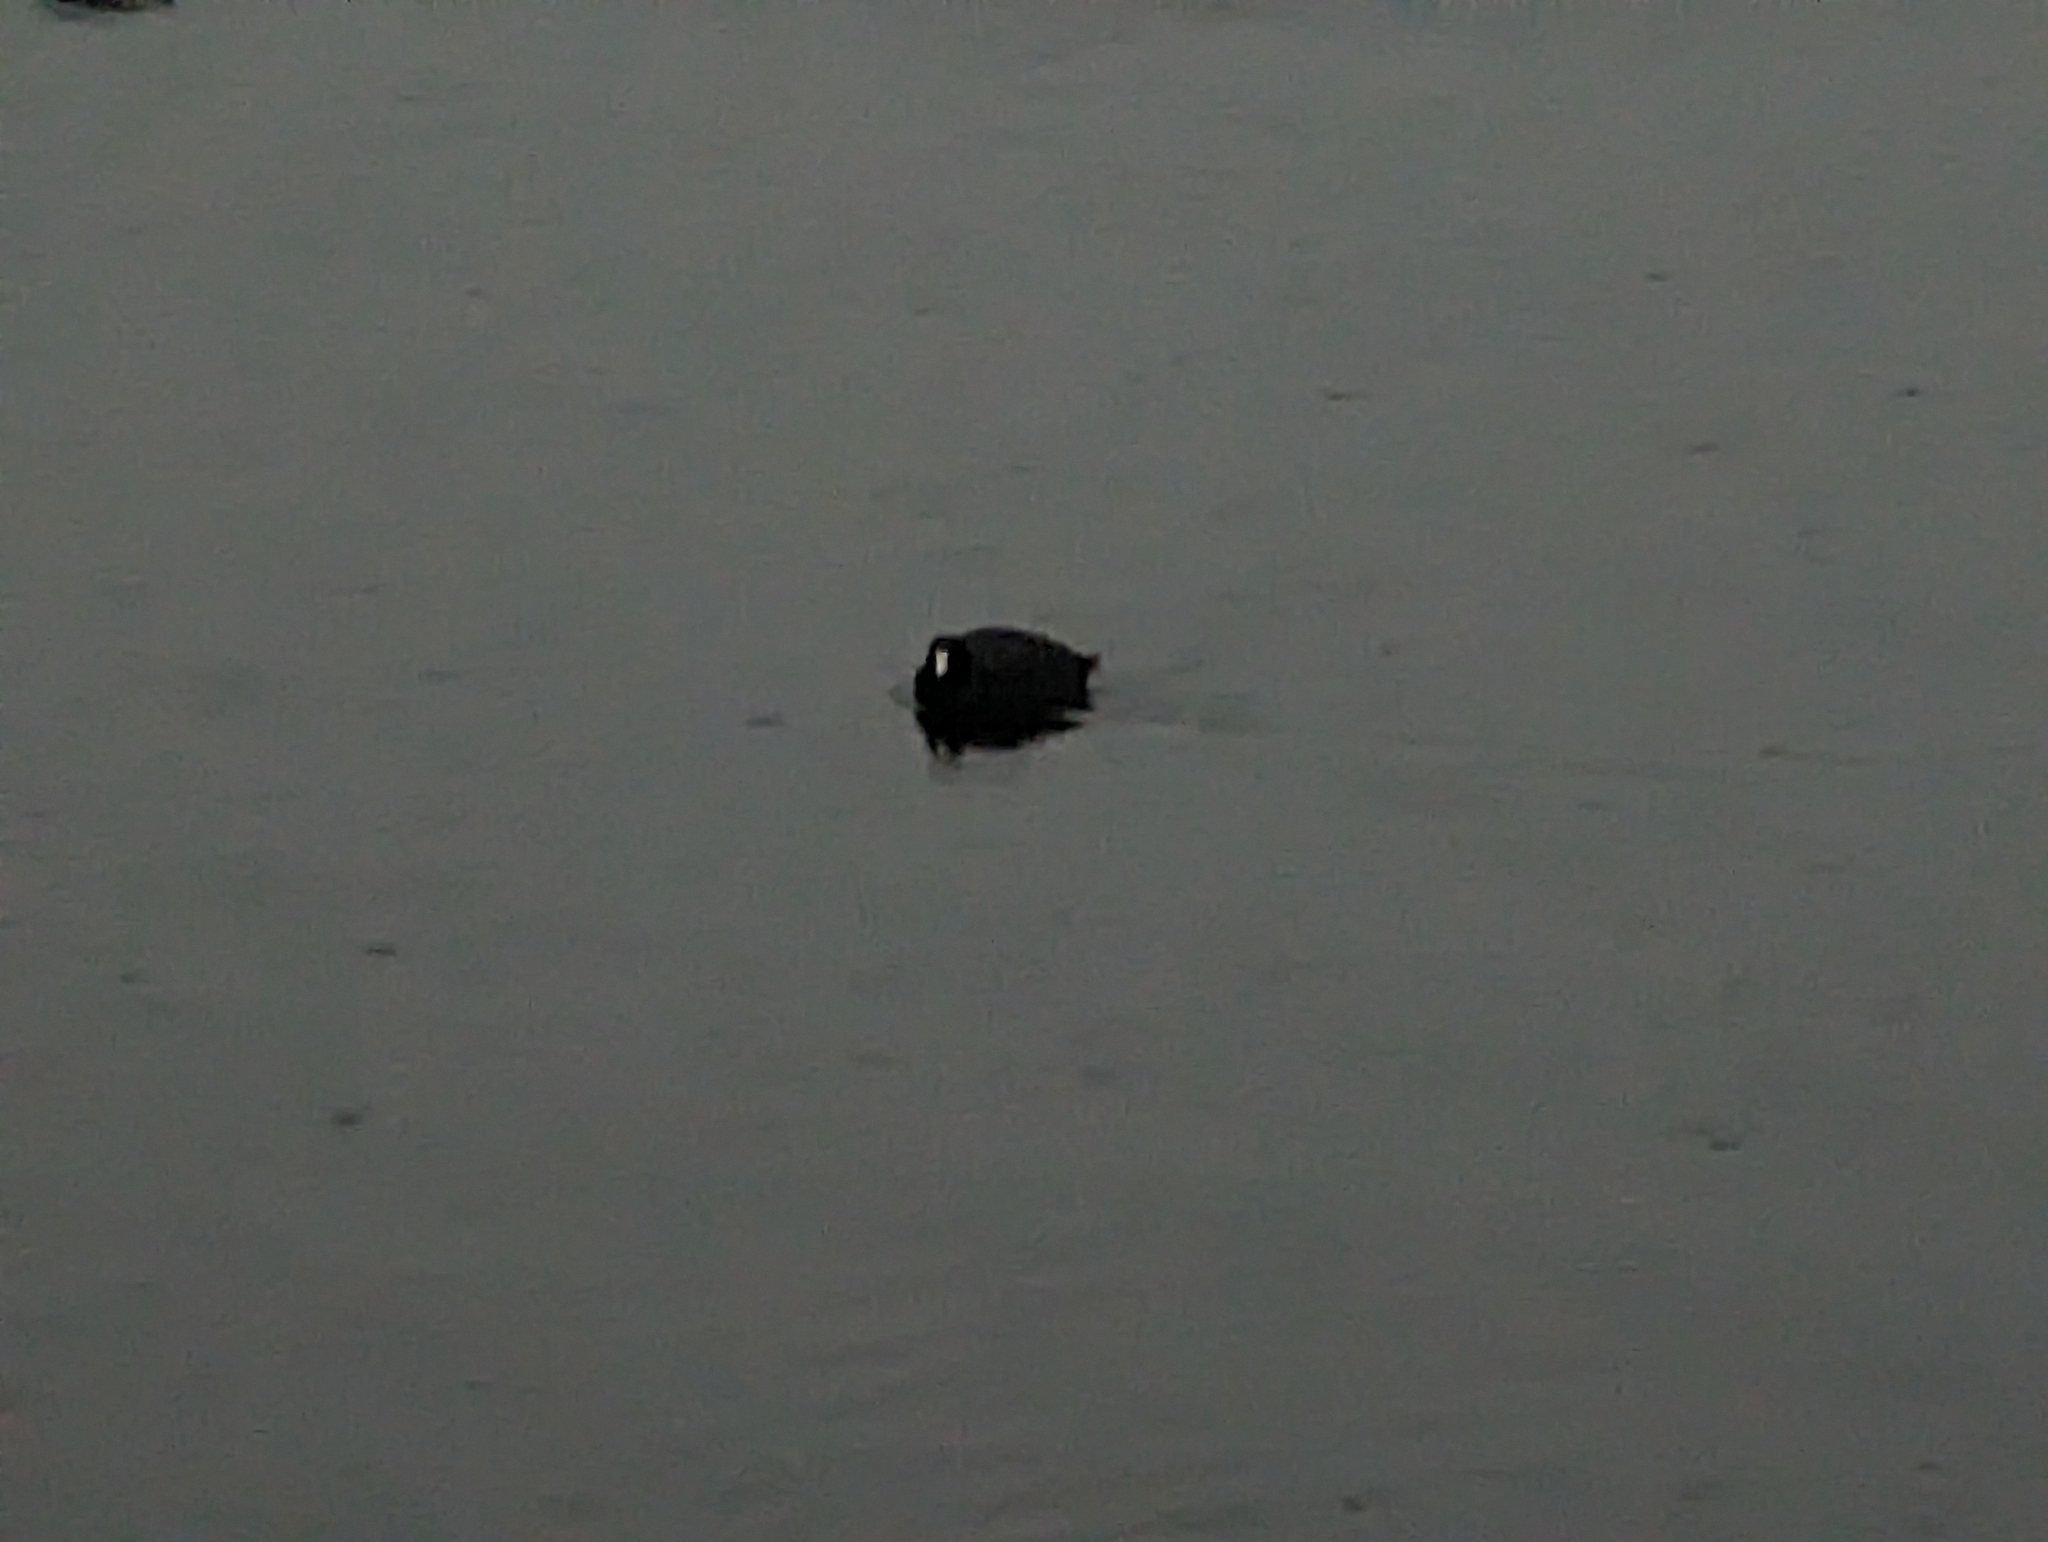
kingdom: Animalia
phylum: Chordata
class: Aves
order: Gruiformes
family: Rallidae
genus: Fulica
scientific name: Fulica americana
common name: American coot
